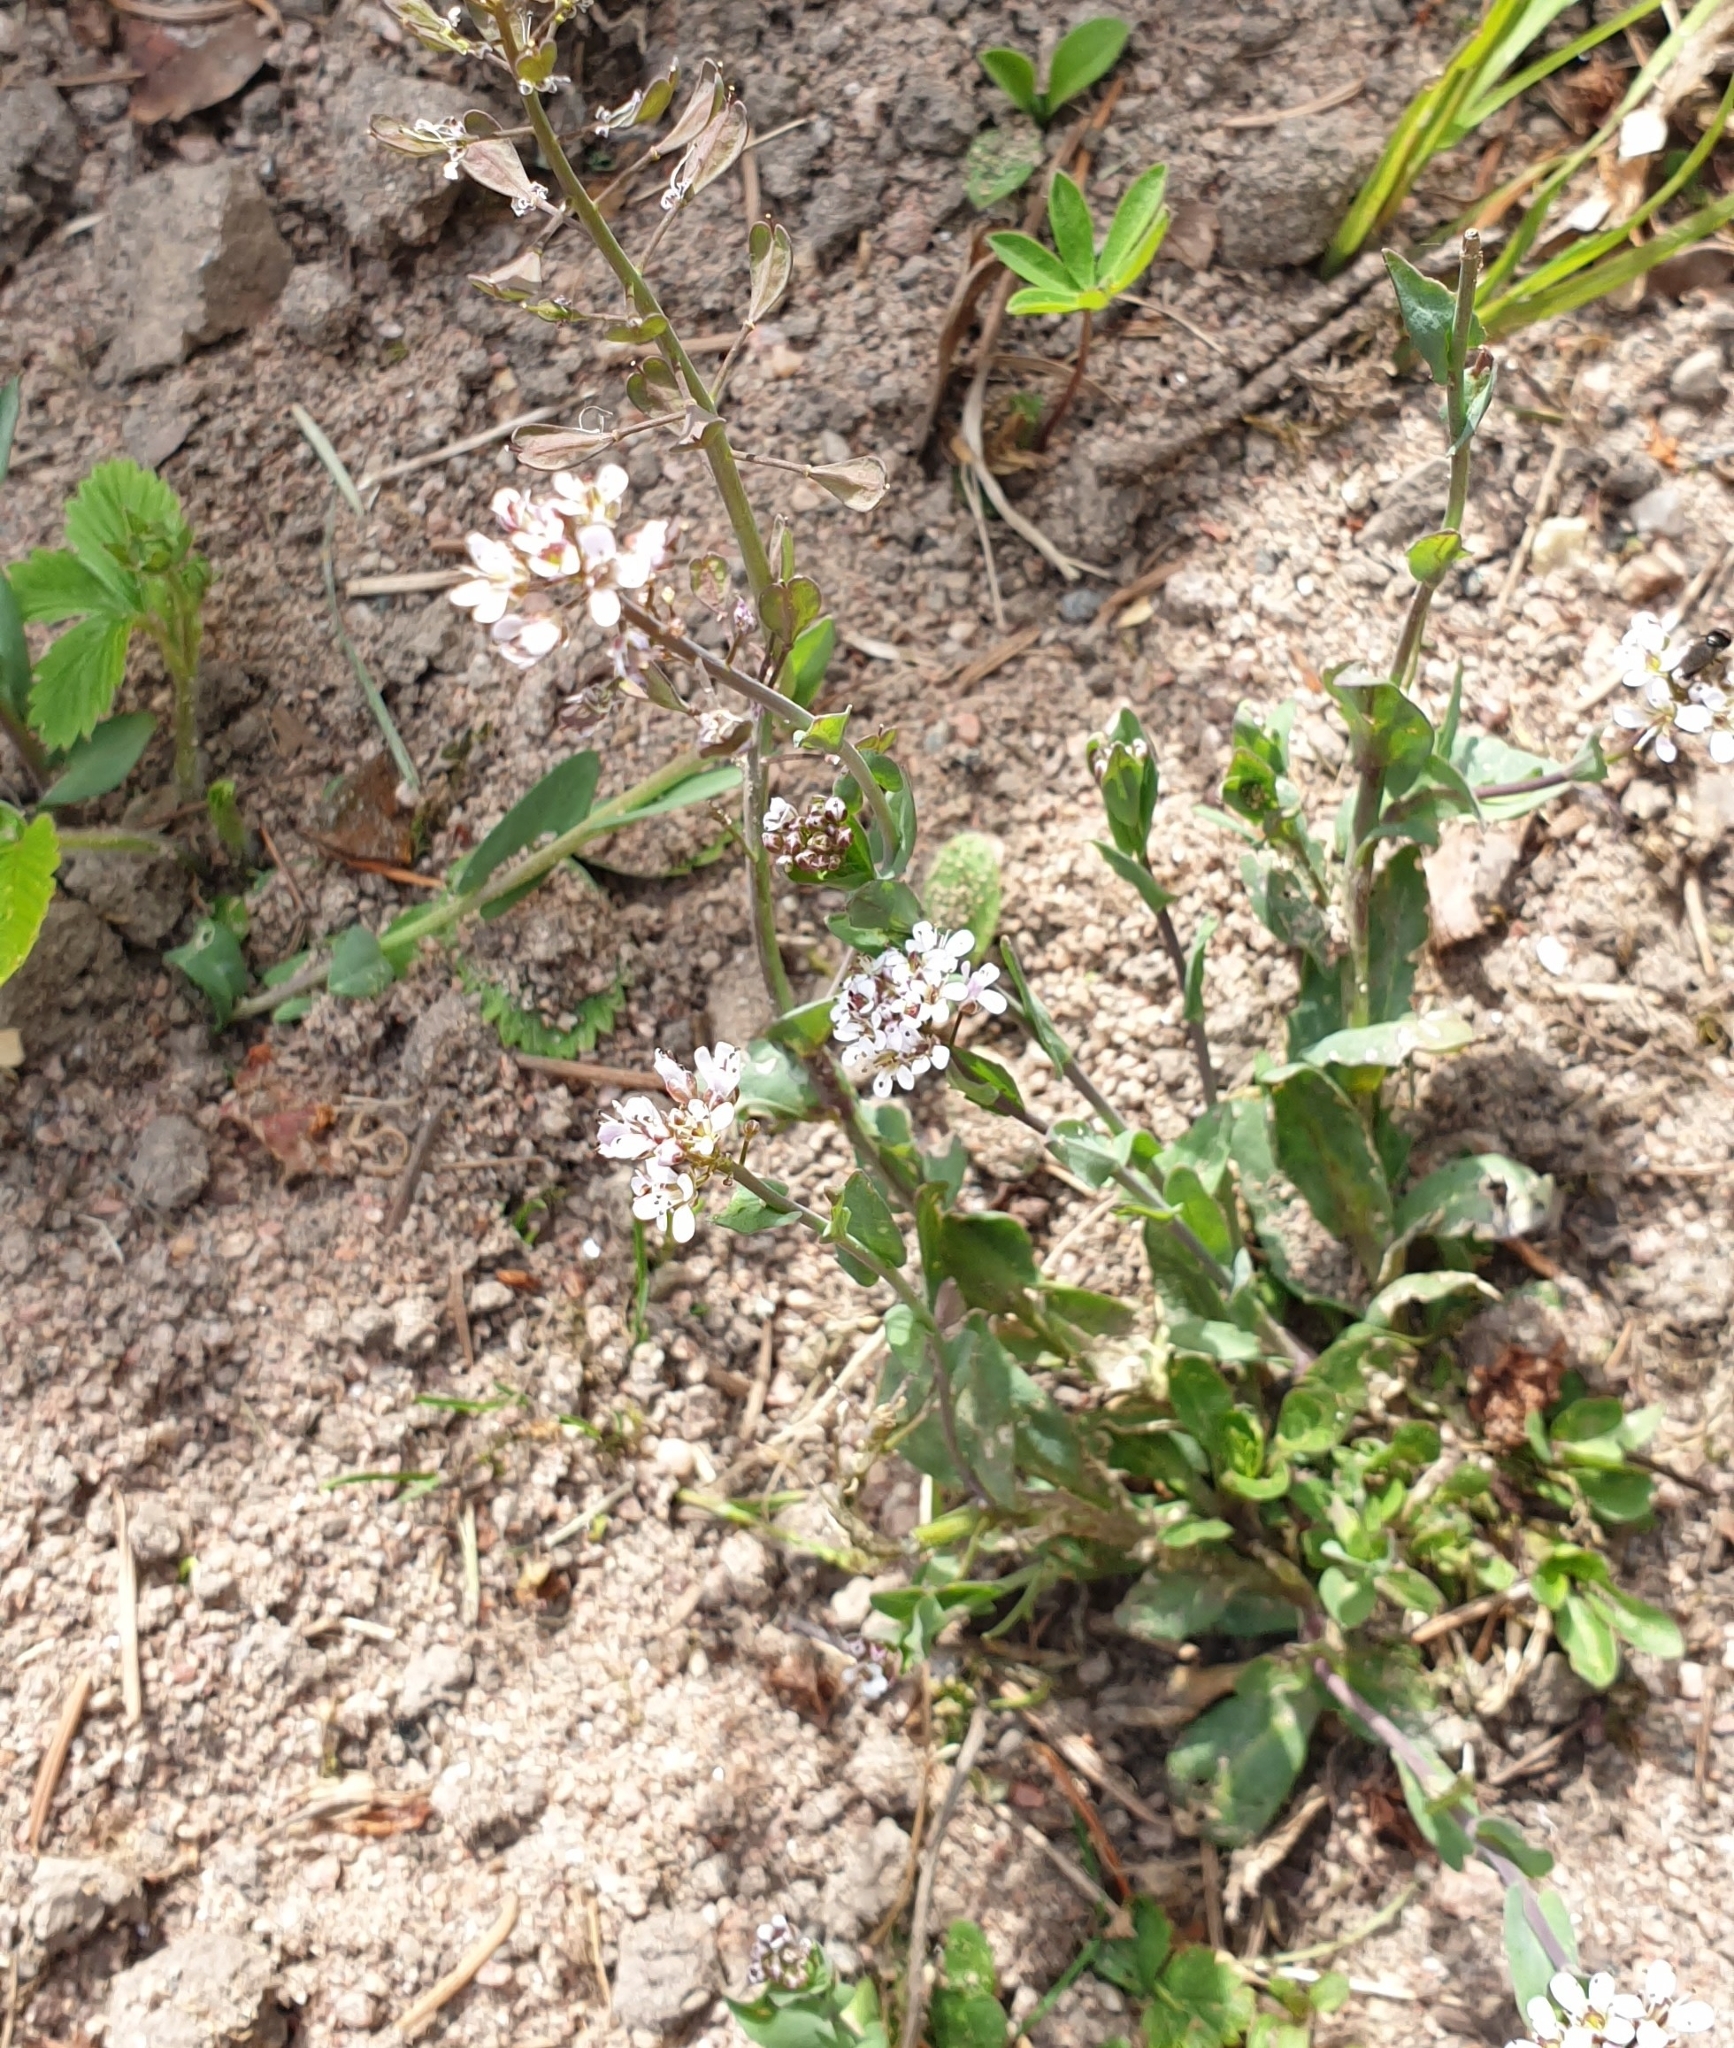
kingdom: Plantae
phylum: Tracheophyta
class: Magnoliopsida
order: Brassicales
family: Brassicaceae
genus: Capsella
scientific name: Capsella bursa-pastoris
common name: Shepherd's purse
